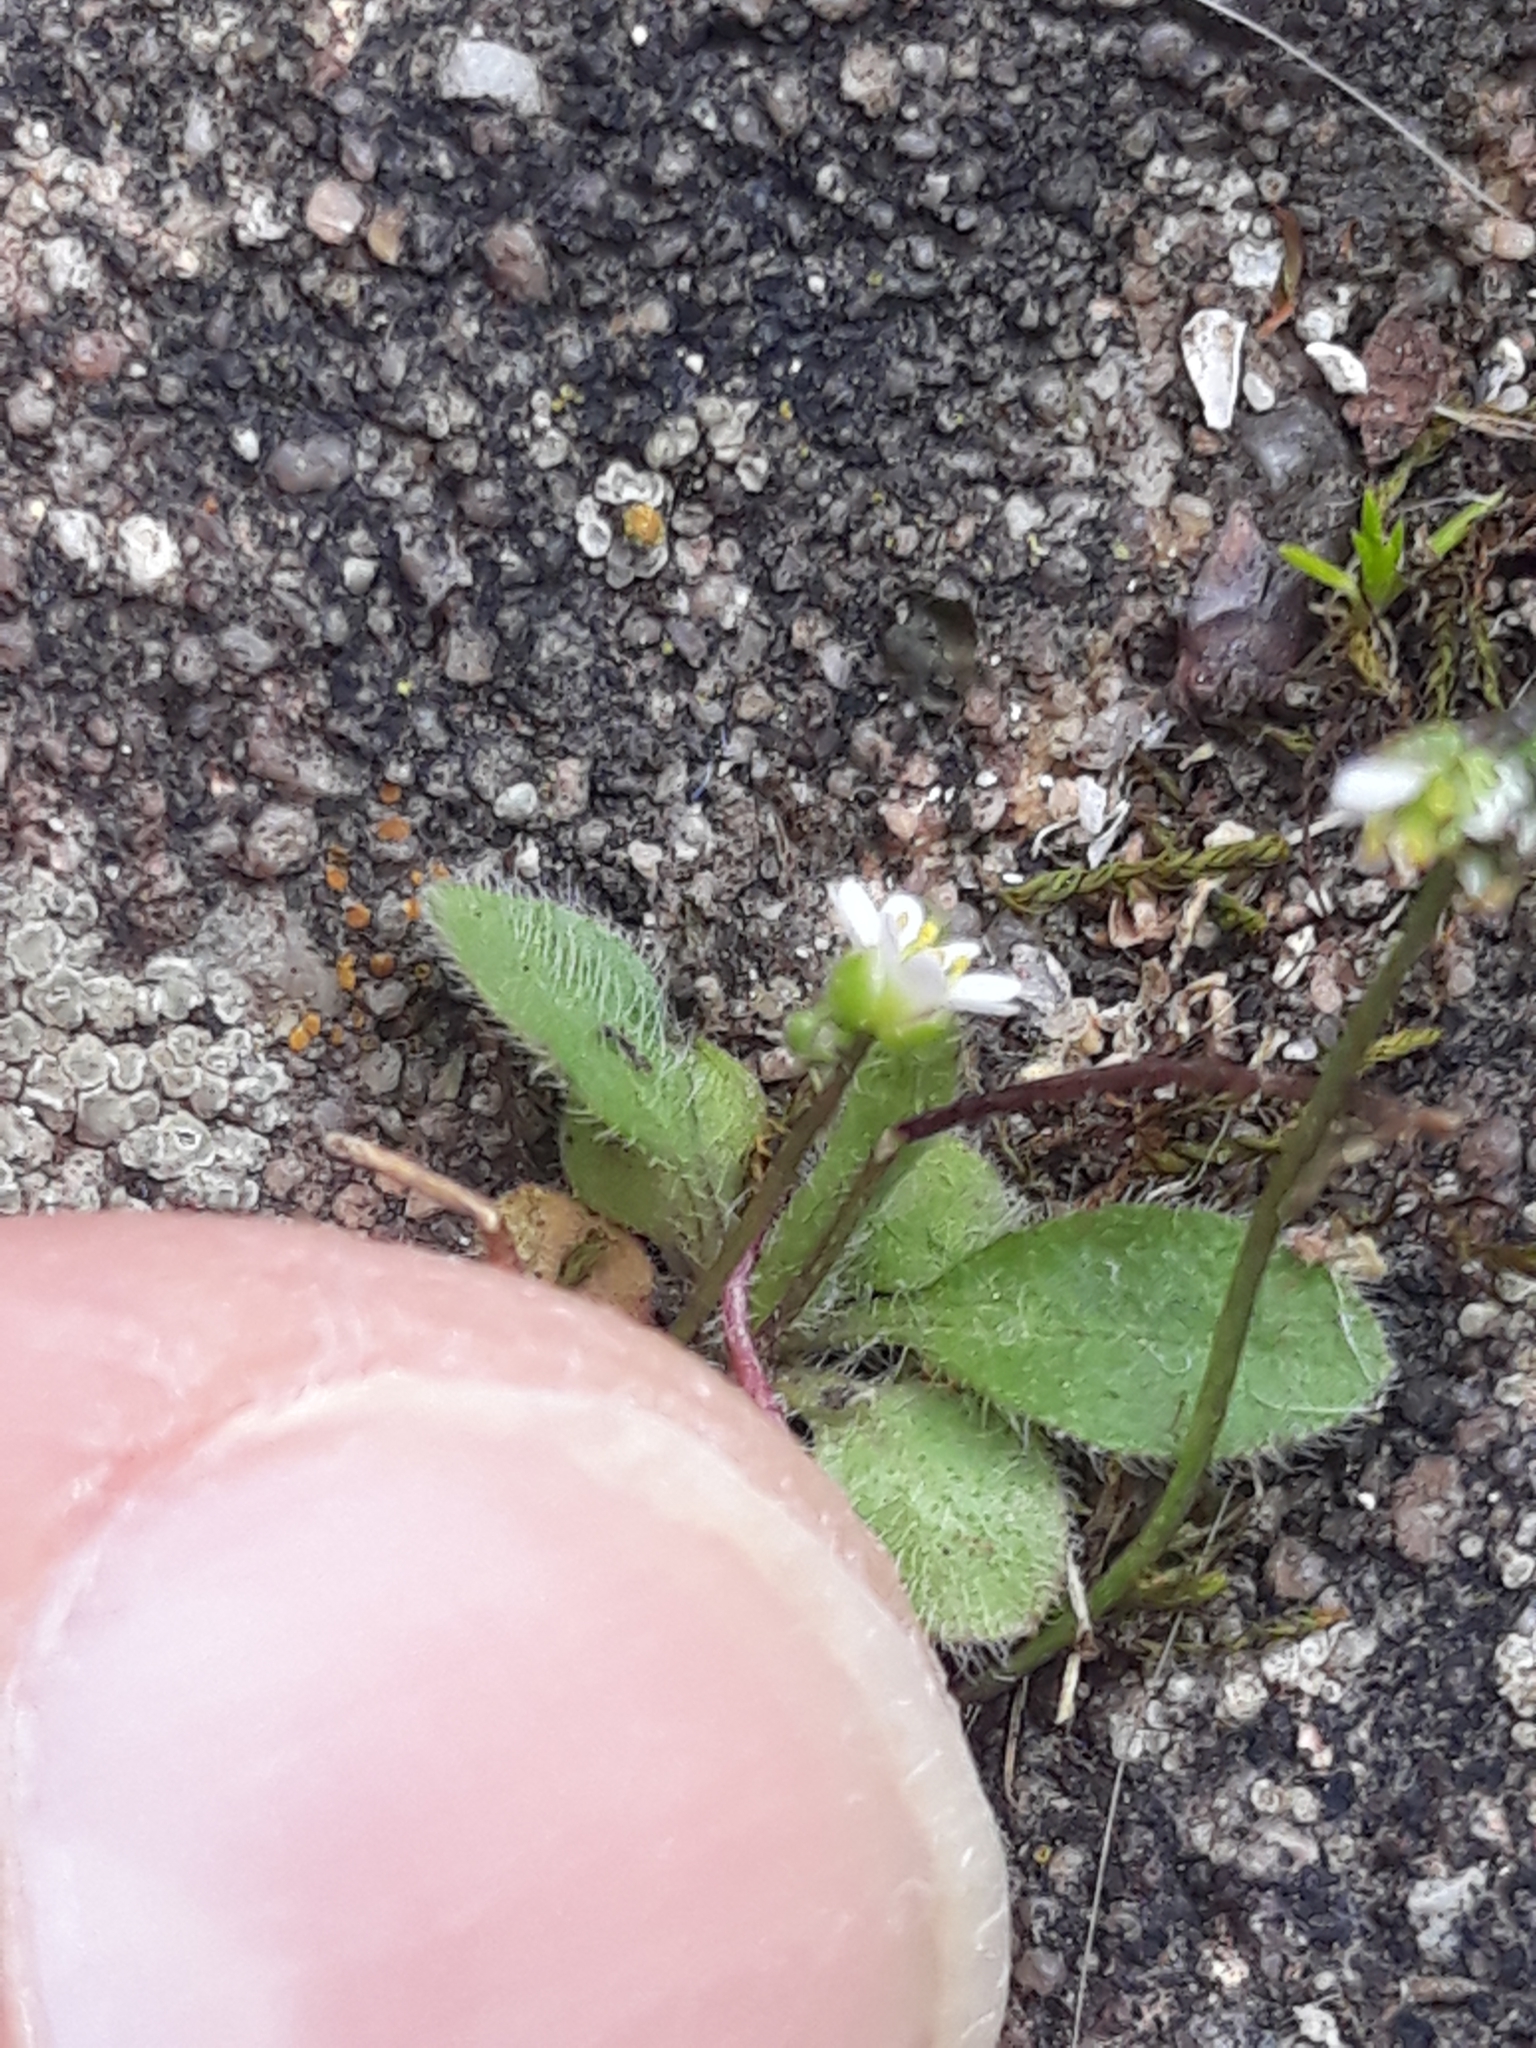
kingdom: Plantae
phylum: Tracheophyta
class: Magnoliopsida
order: Brassicales
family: Brassicaceae
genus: Draba
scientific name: Draba verna
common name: Spring draba
